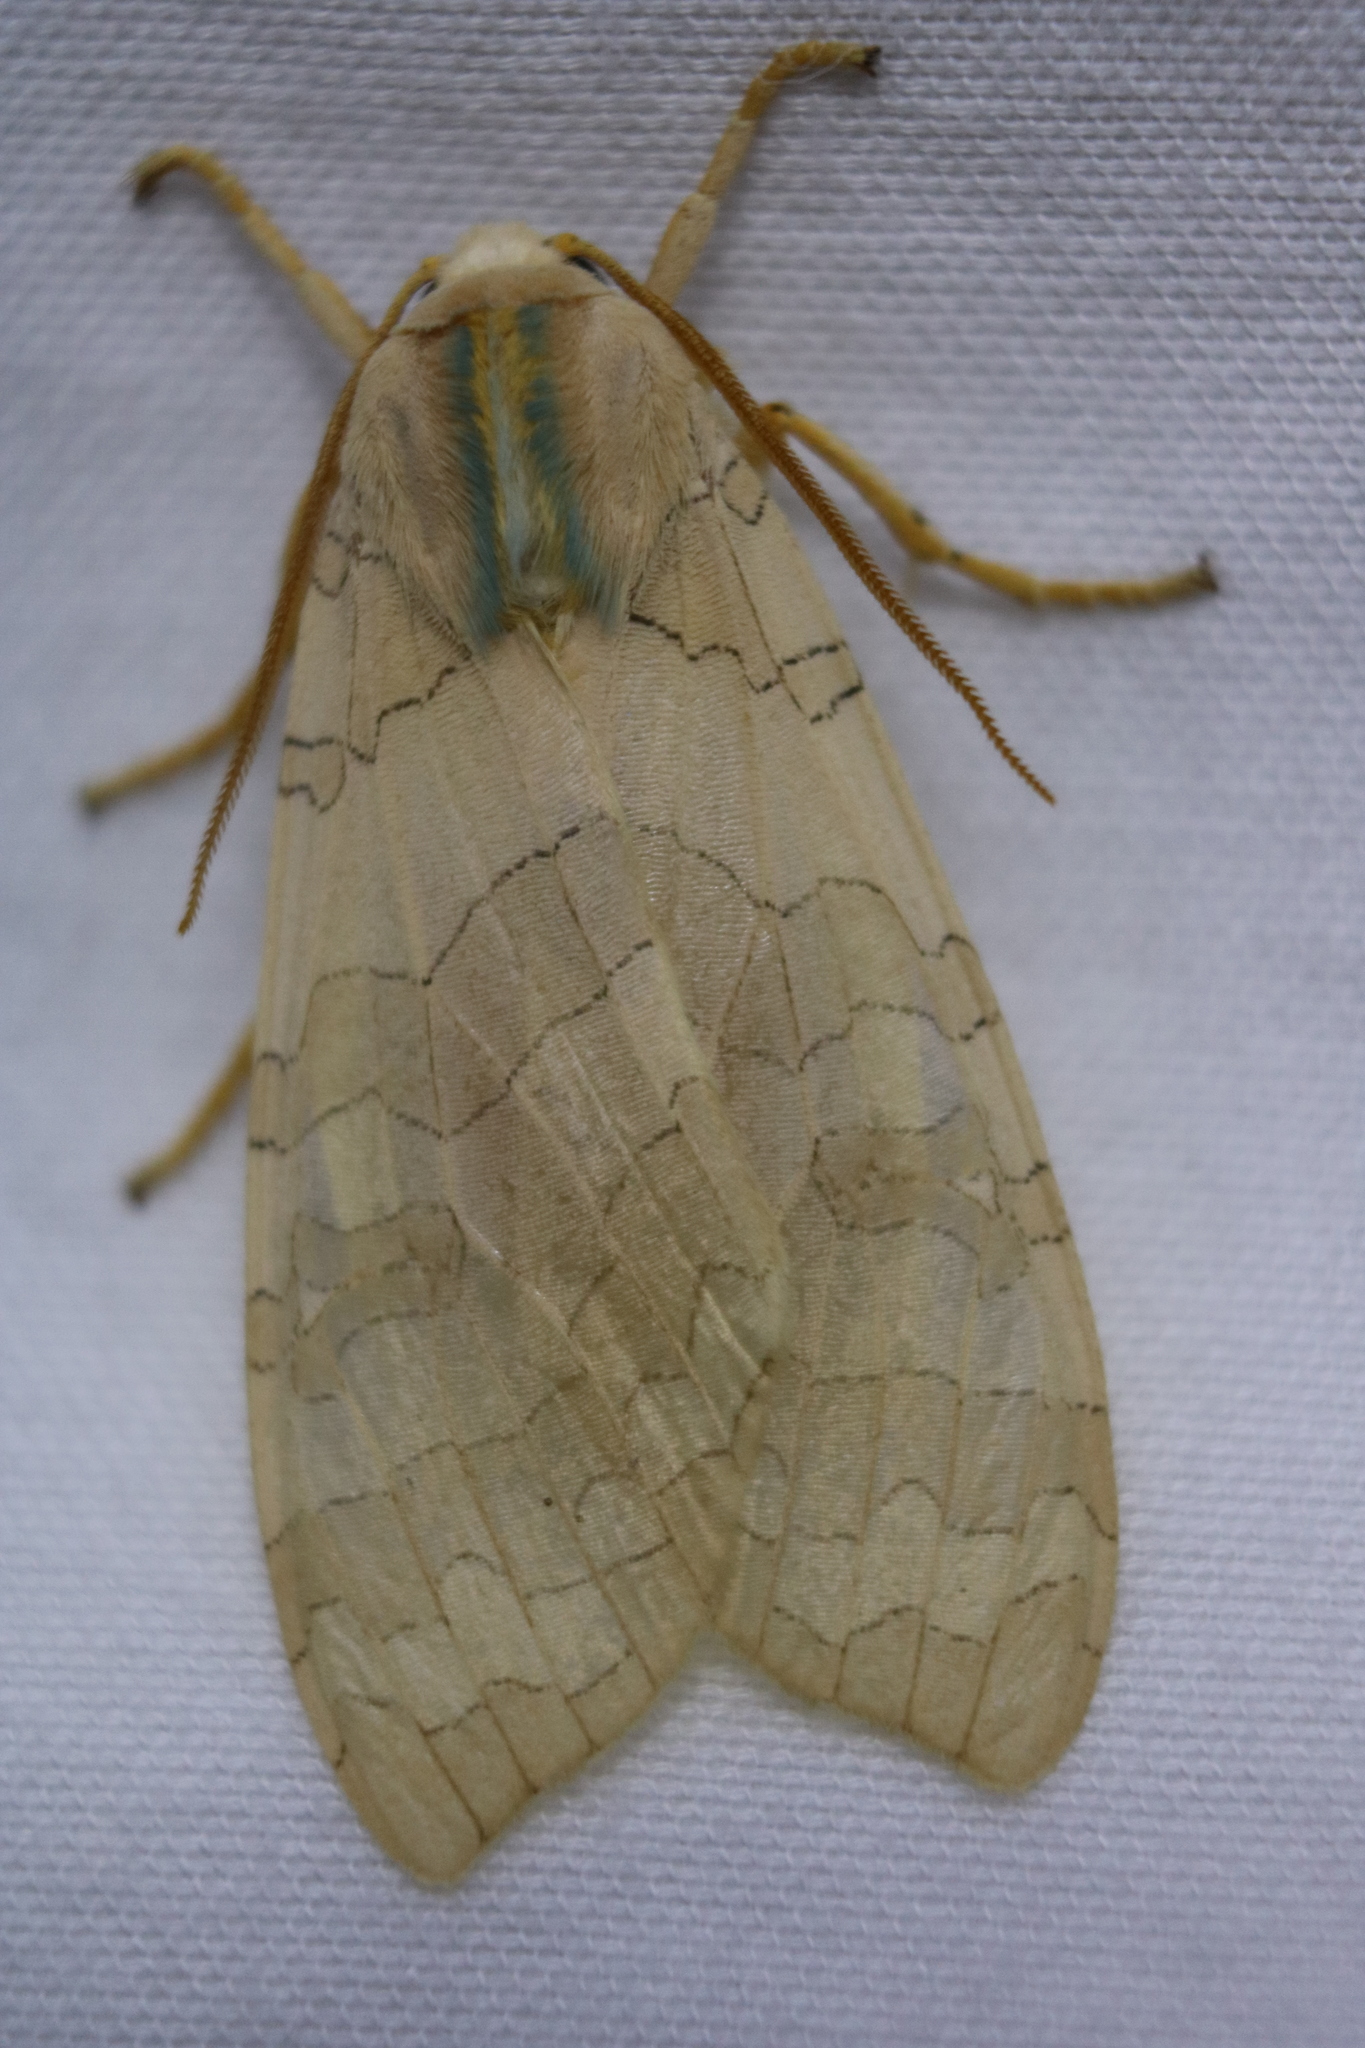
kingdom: Animalia
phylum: Arthropoda
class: Insecta
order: Lepidoptera
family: Erebidae
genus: Halysidota
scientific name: Halysidota tessellaris
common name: Banded tussock moth
